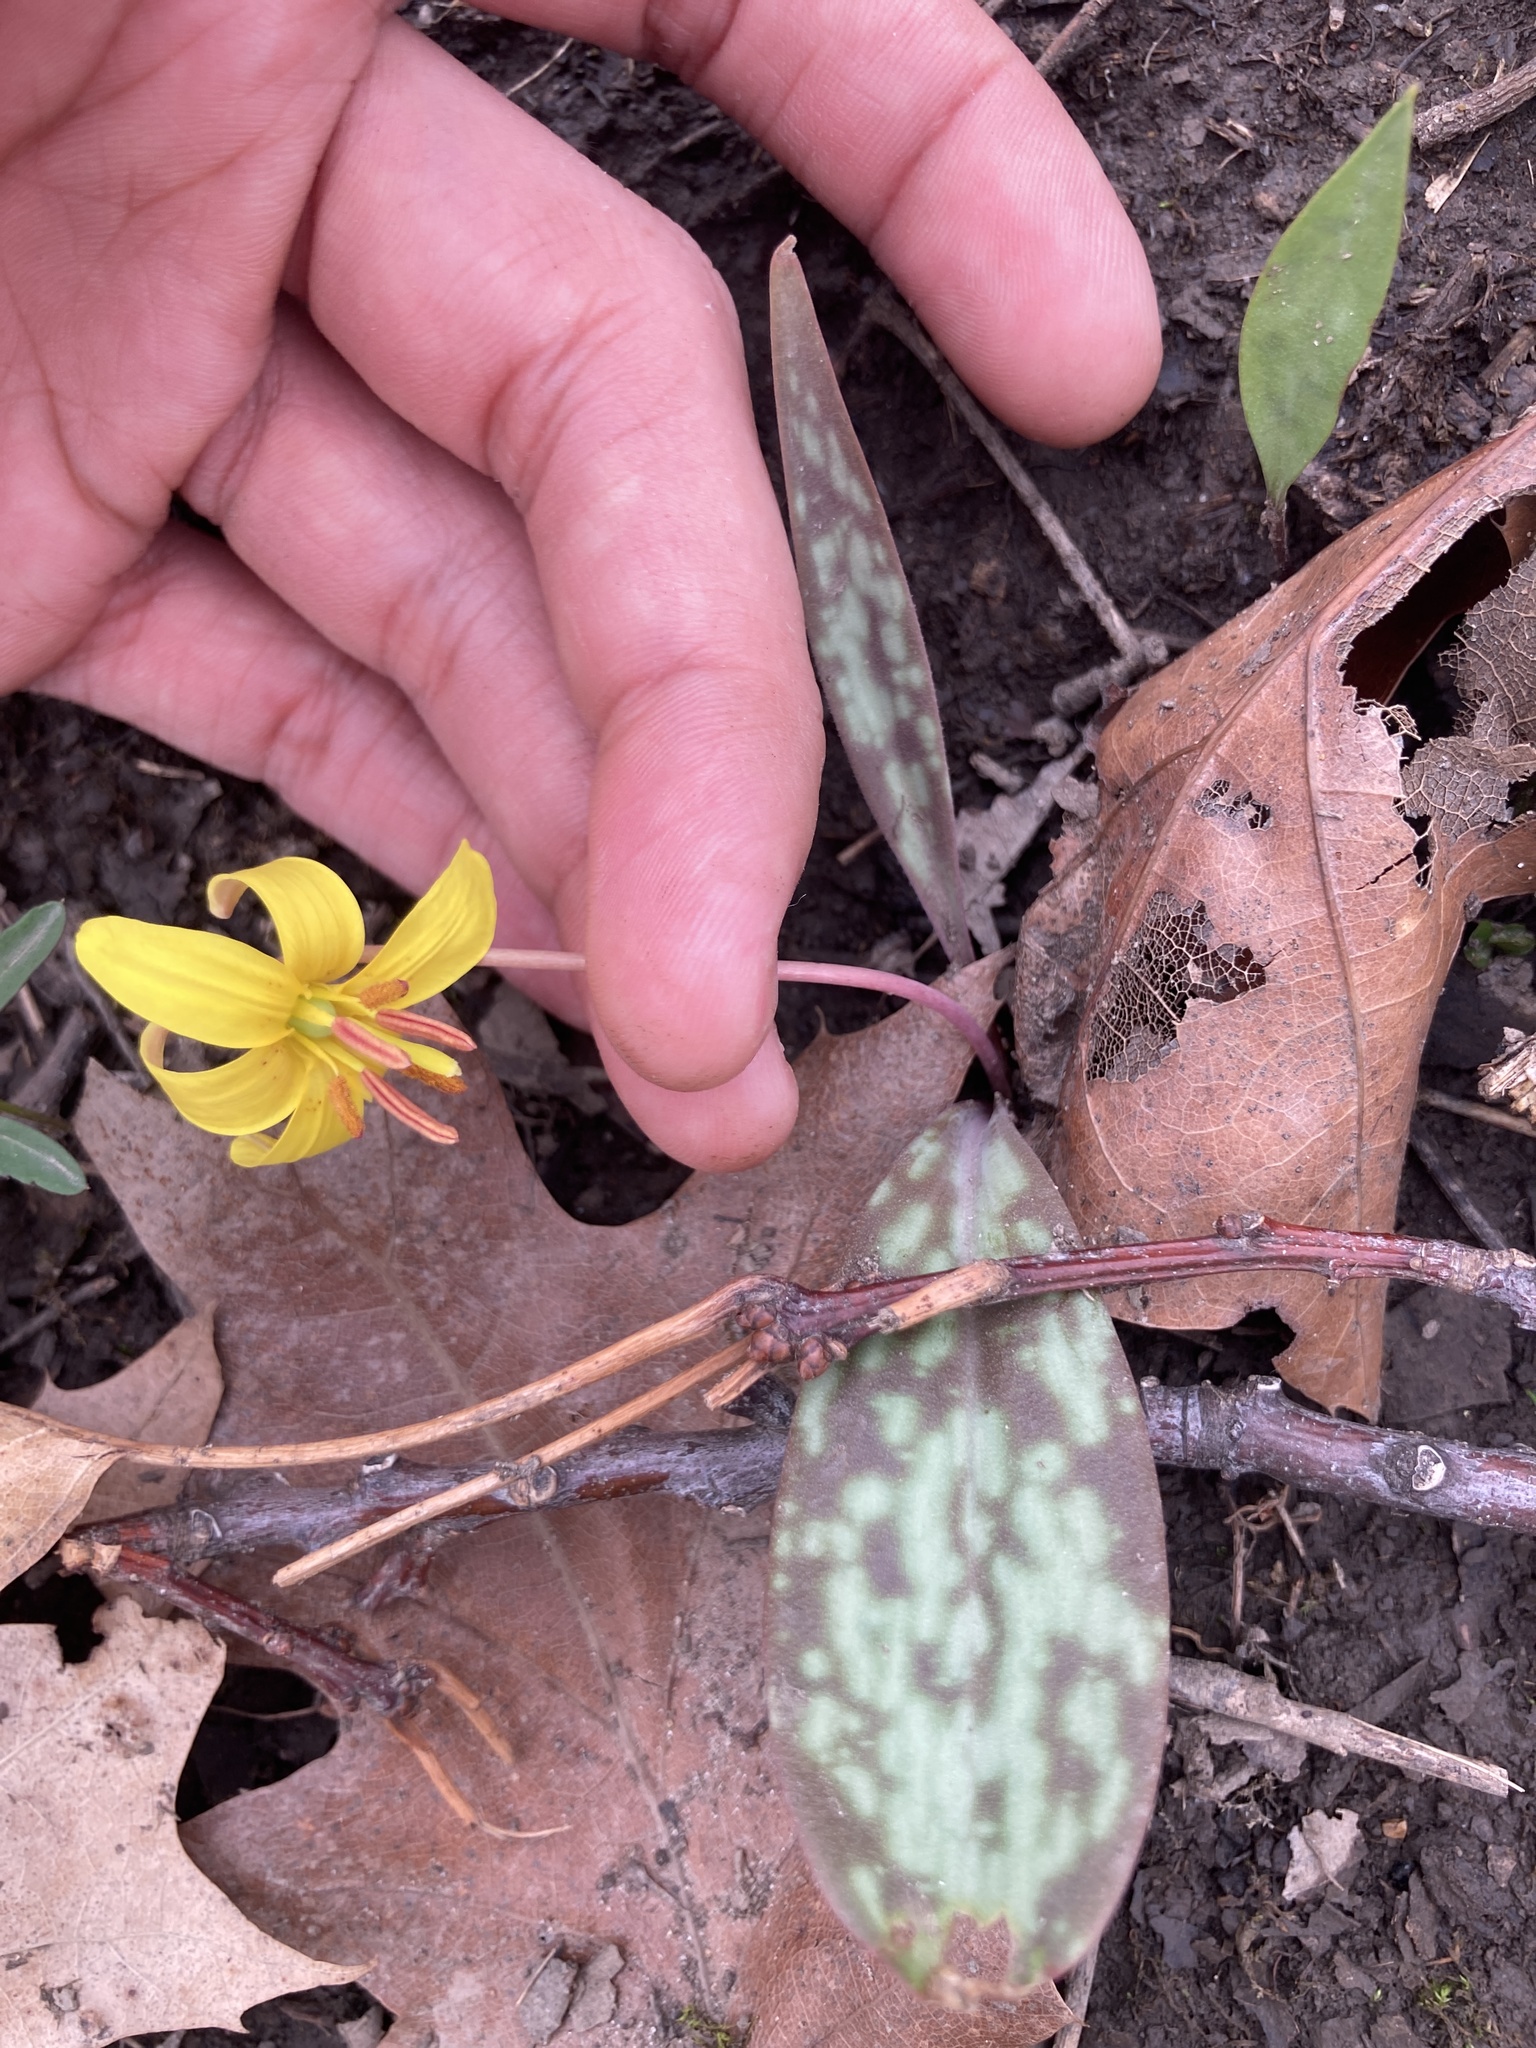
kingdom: Plantae
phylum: Tracheophyta
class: Liliopsida
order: Liliales
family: Liliaceae
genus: Erythronium
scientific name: Erythronium americanum
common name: Yellow adder's-tongue
